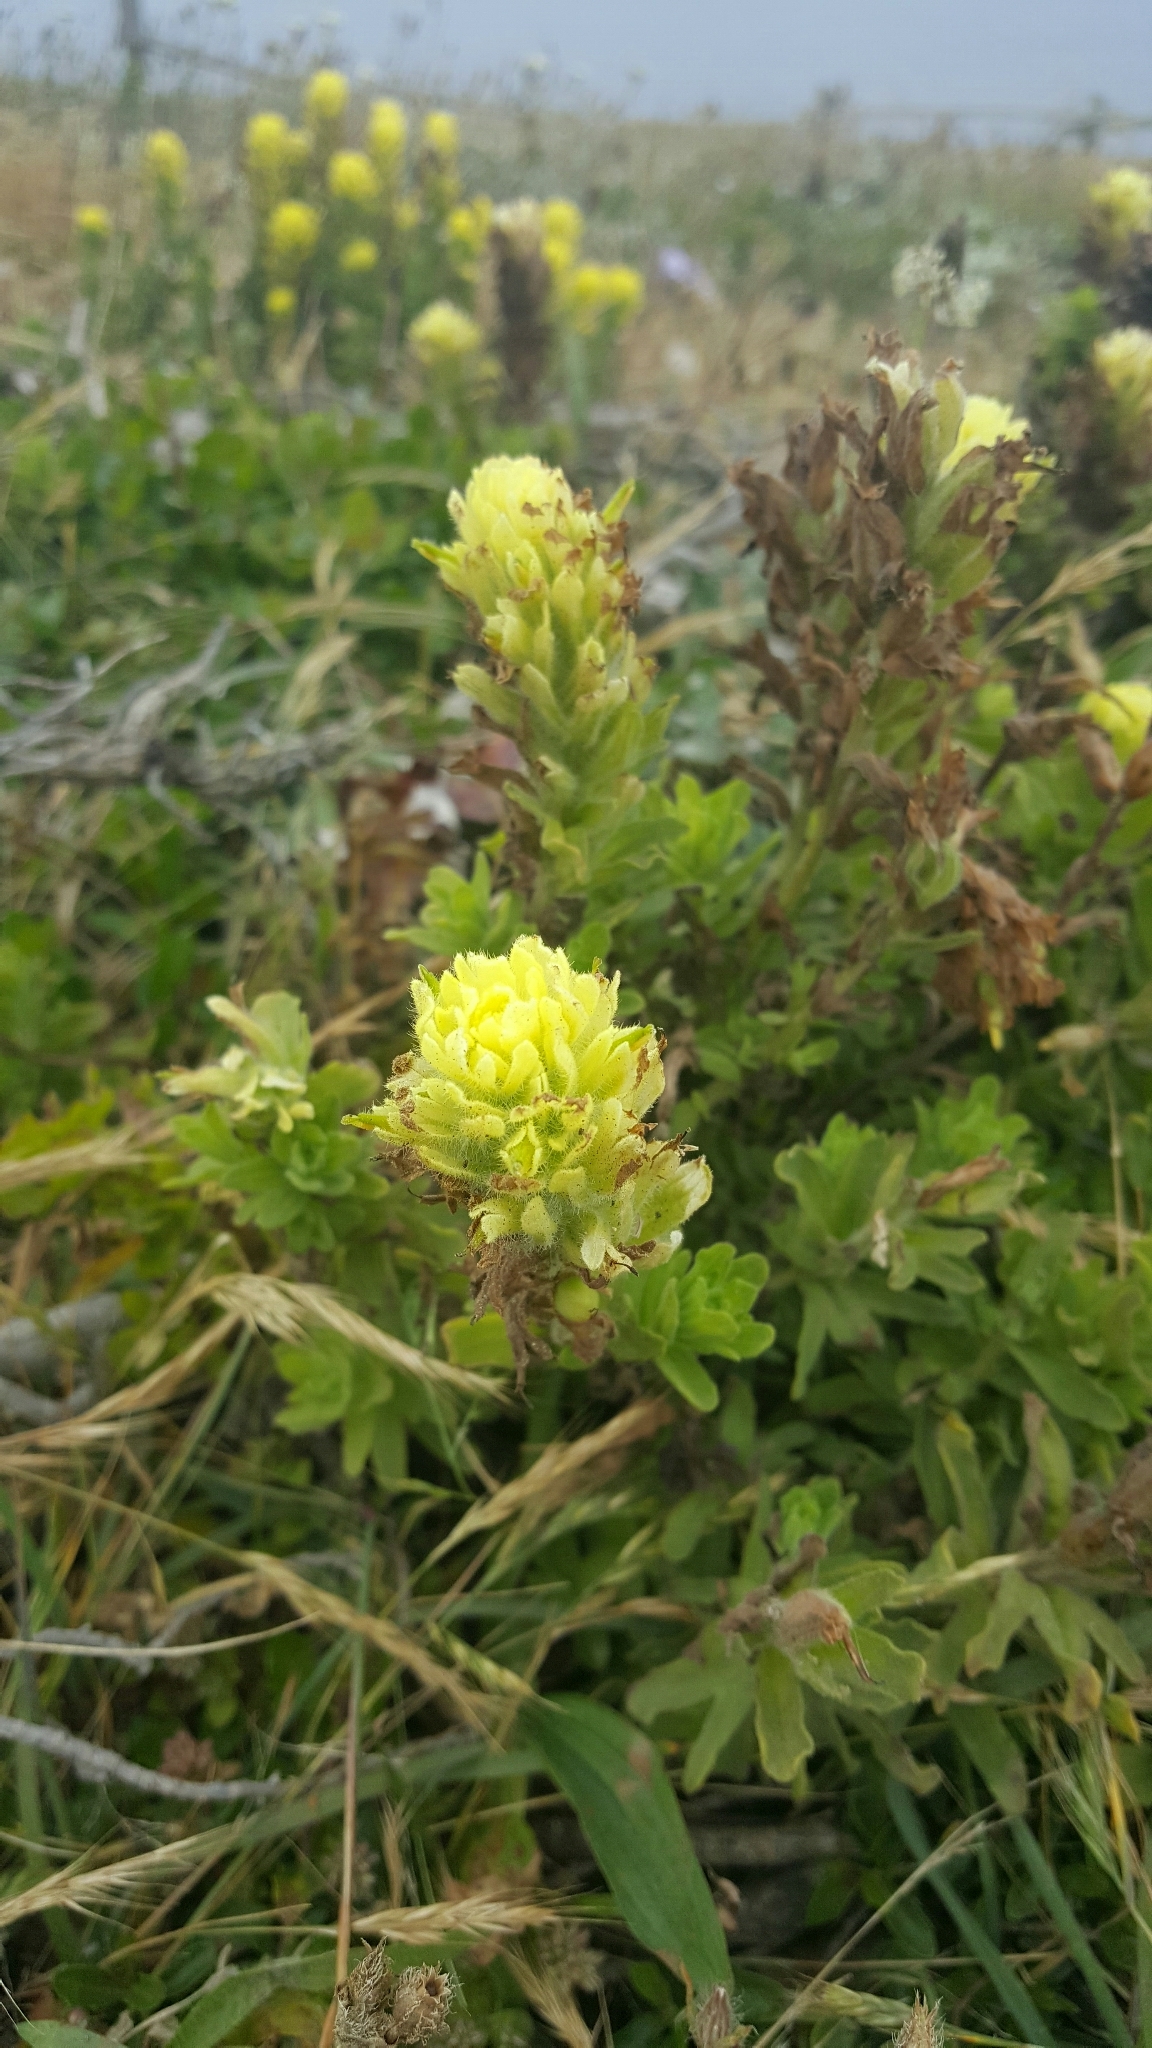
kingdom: Plantae
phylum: Tracheophyta
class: Magnoliopsida
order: Lamiales
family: Orobanchaceae
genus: Castilleja
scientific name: Castilleja wightii
